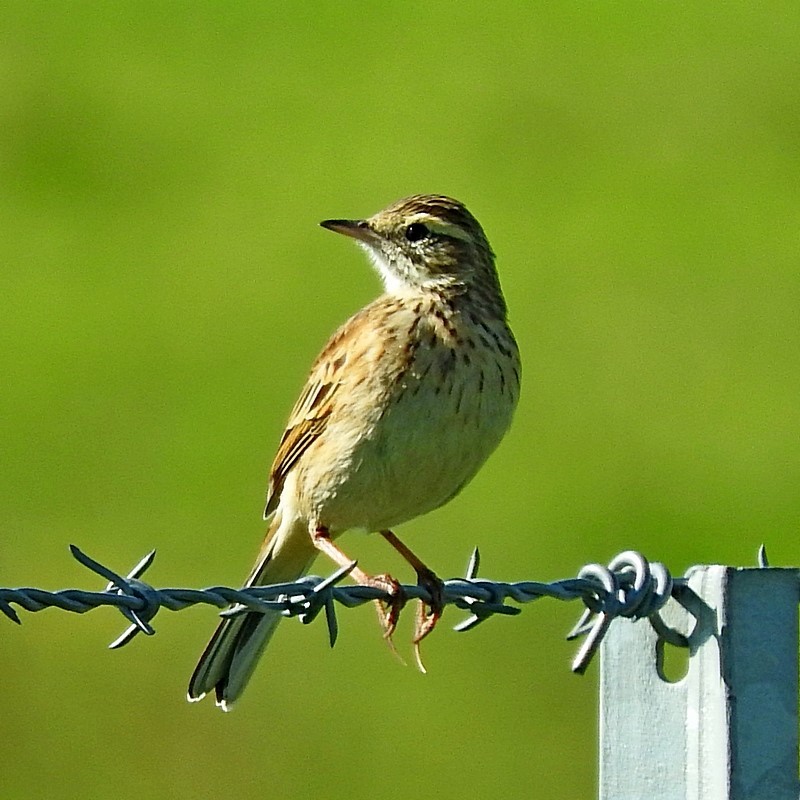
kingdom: Animalia
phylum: Chordata
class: Aves
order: Passeriformes
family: Motacillidae
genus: Anthus
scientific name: Anthus australis
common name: Australian pipit
